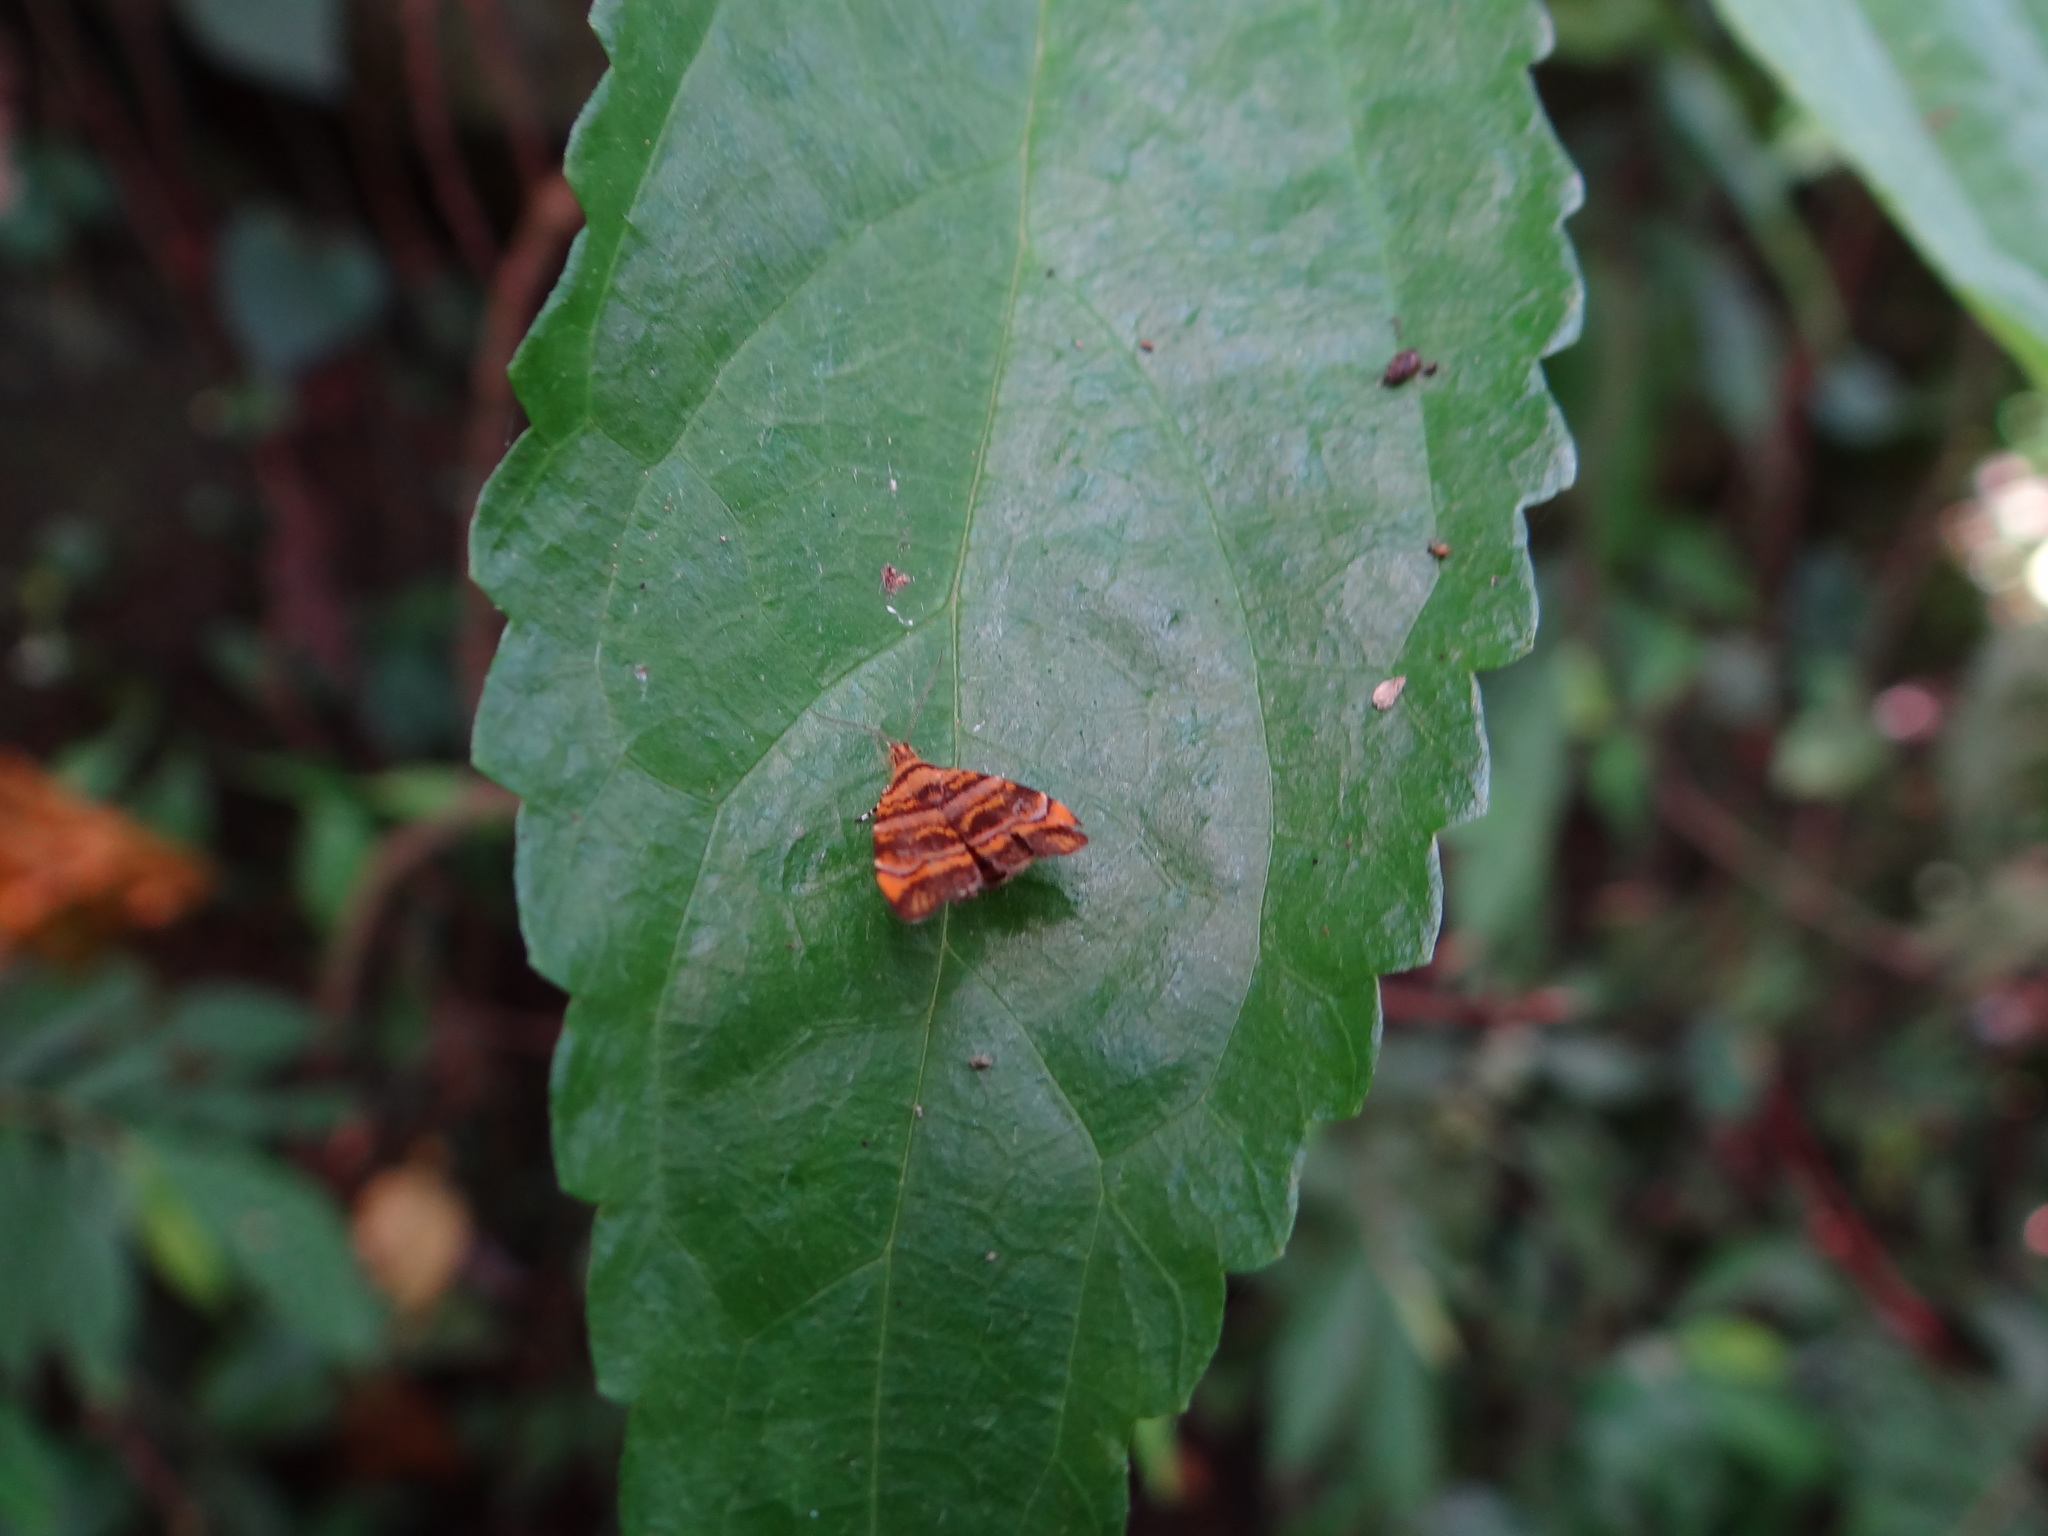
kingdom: Animalia
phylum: Arthropoda
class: Insecta
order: Lepidoptera
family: Choreutidae
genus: Anthophila
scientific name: Anthophila amethystodes
